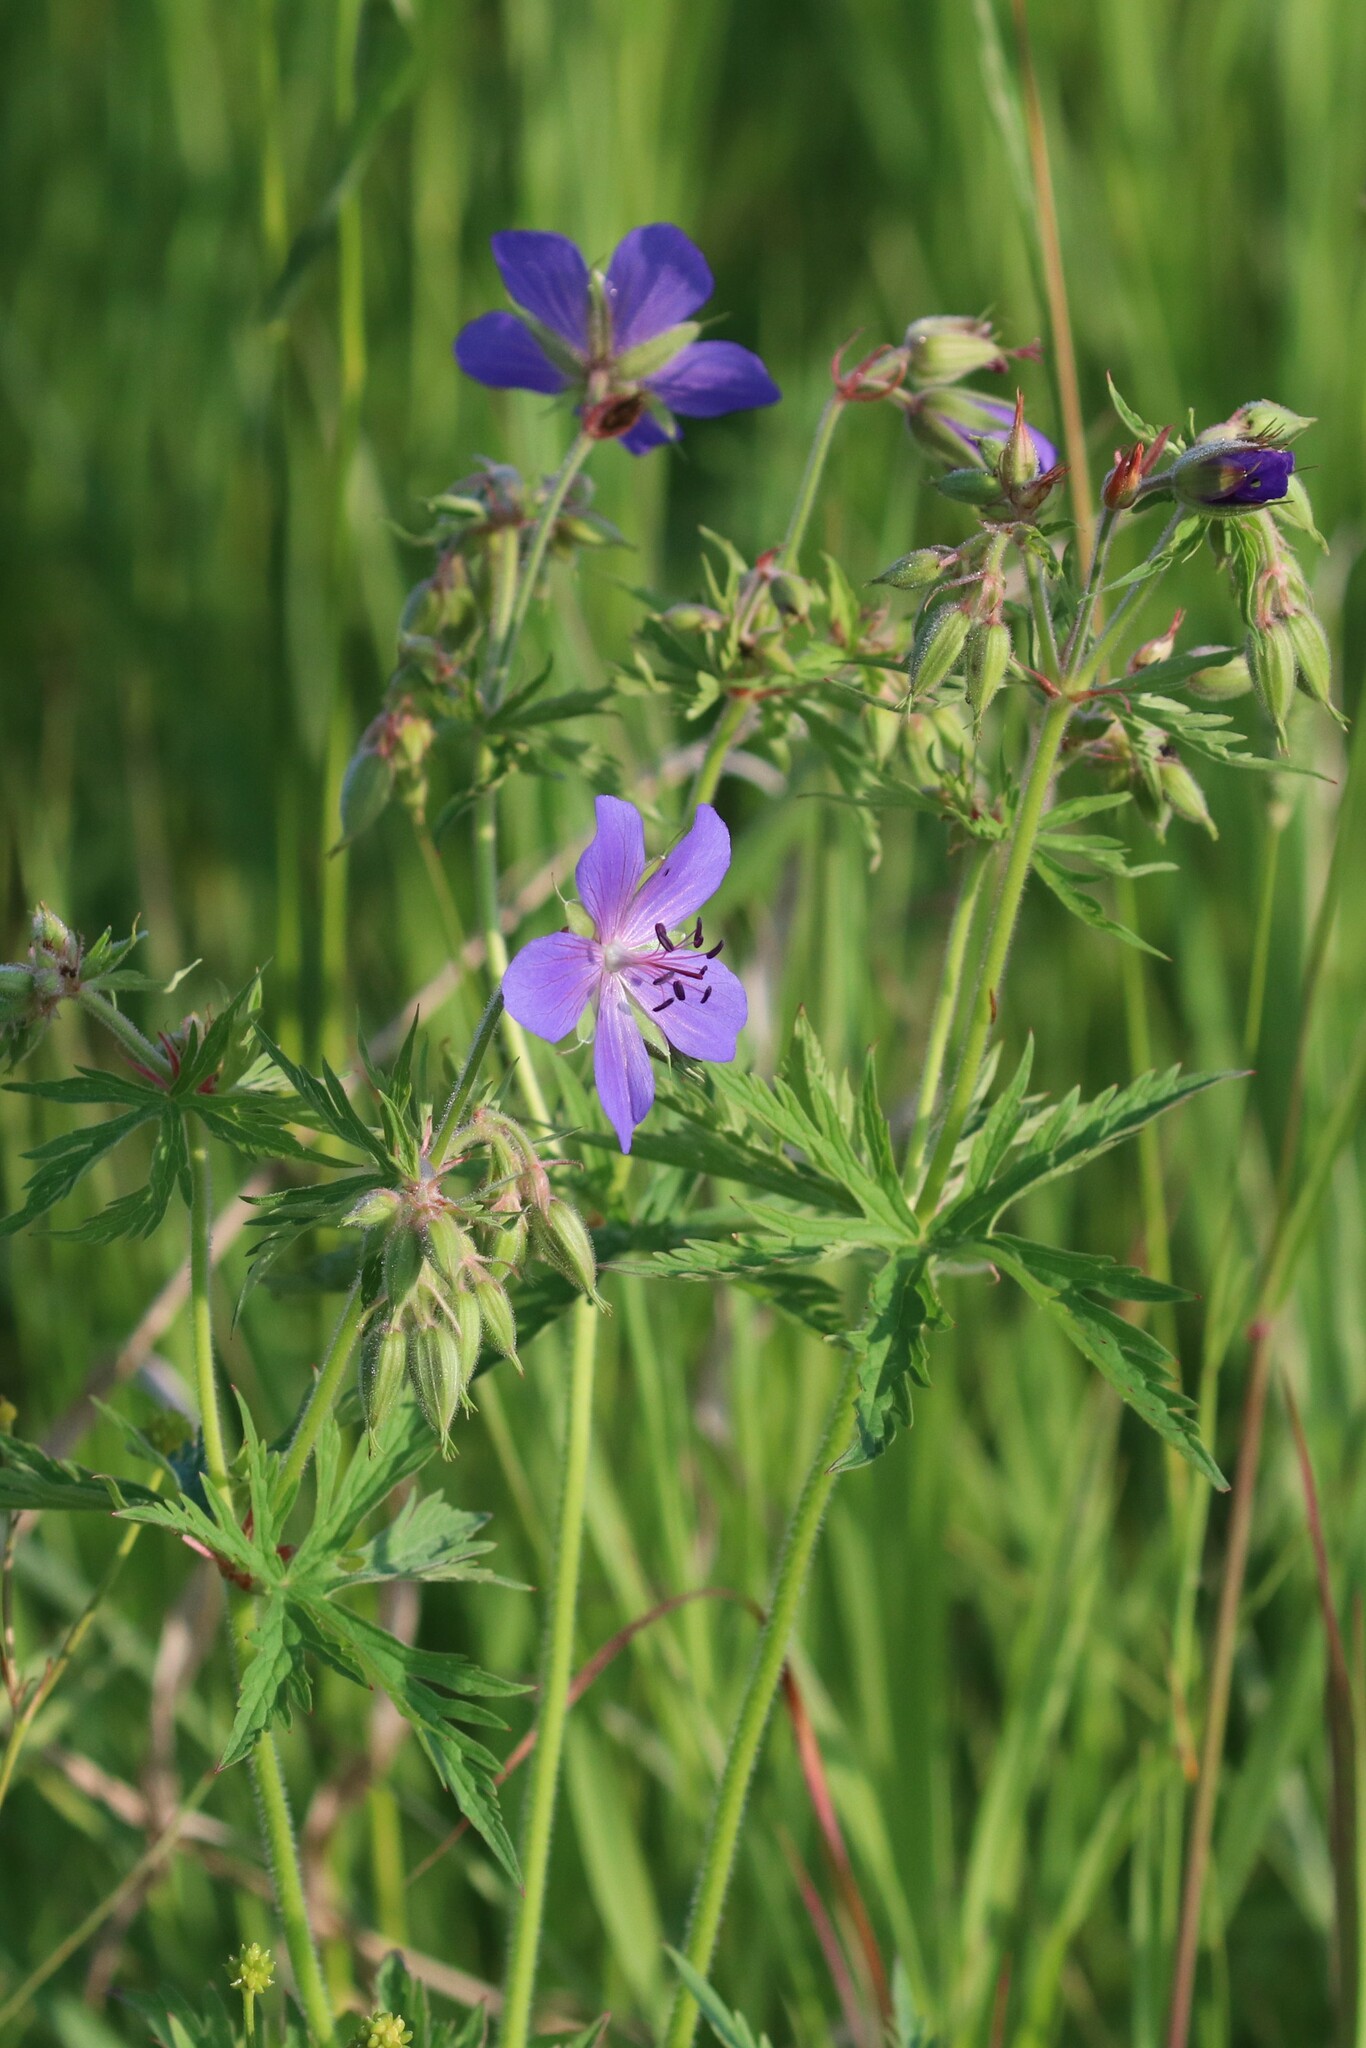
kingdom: Plantae
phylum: Tracheophyta
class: Magnoliopsida
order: Geraniales
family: Geraniaceae
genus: Geranium
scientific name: Geranium pratense
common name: Meadow crane's-bill
